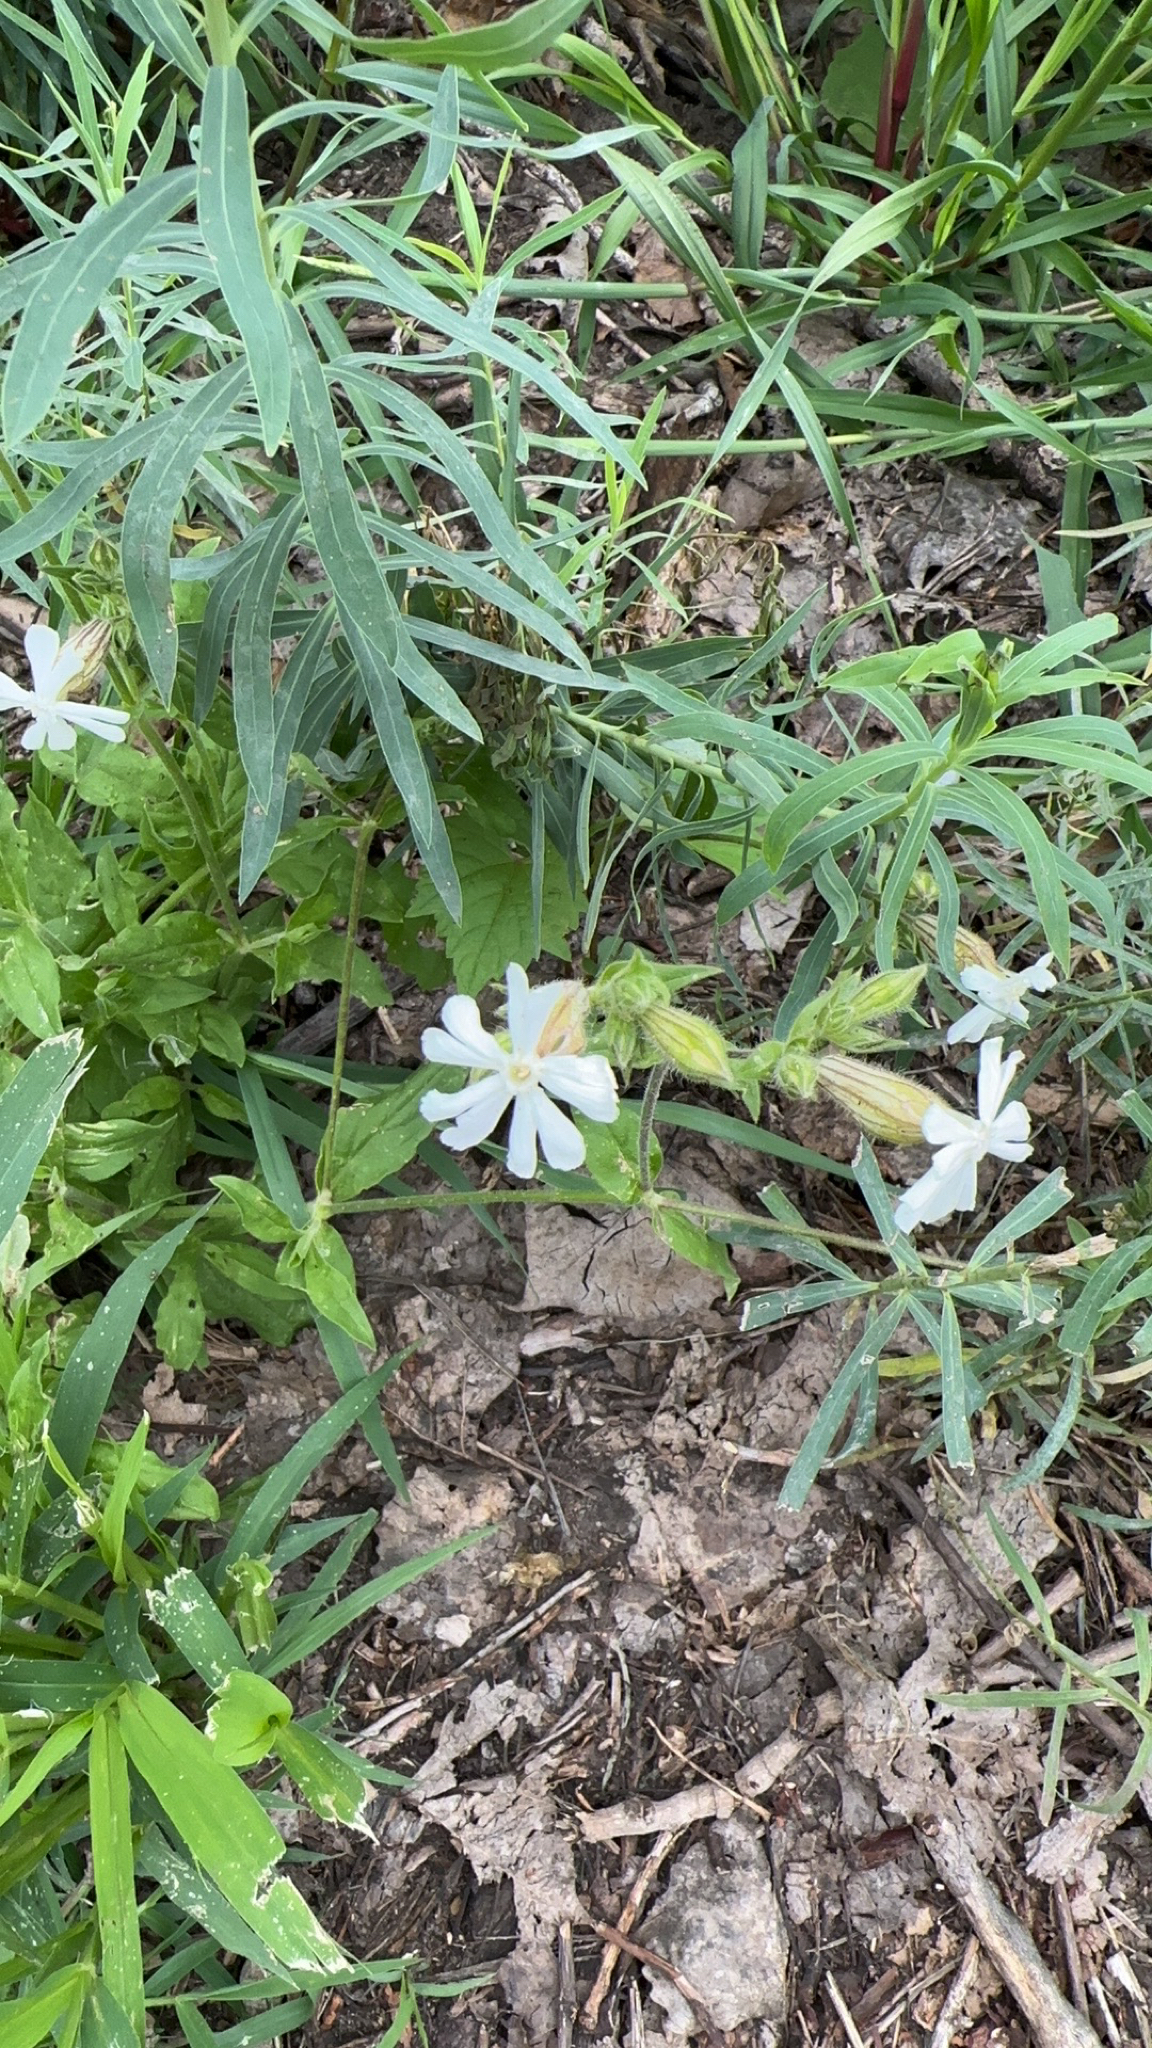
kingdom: Plantae
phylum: Tracheophyta
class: Magnoliopsida
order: Caryophyllales
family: Caryophyllaceae
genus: Silene
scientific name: Silene latifolia
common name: White campion
